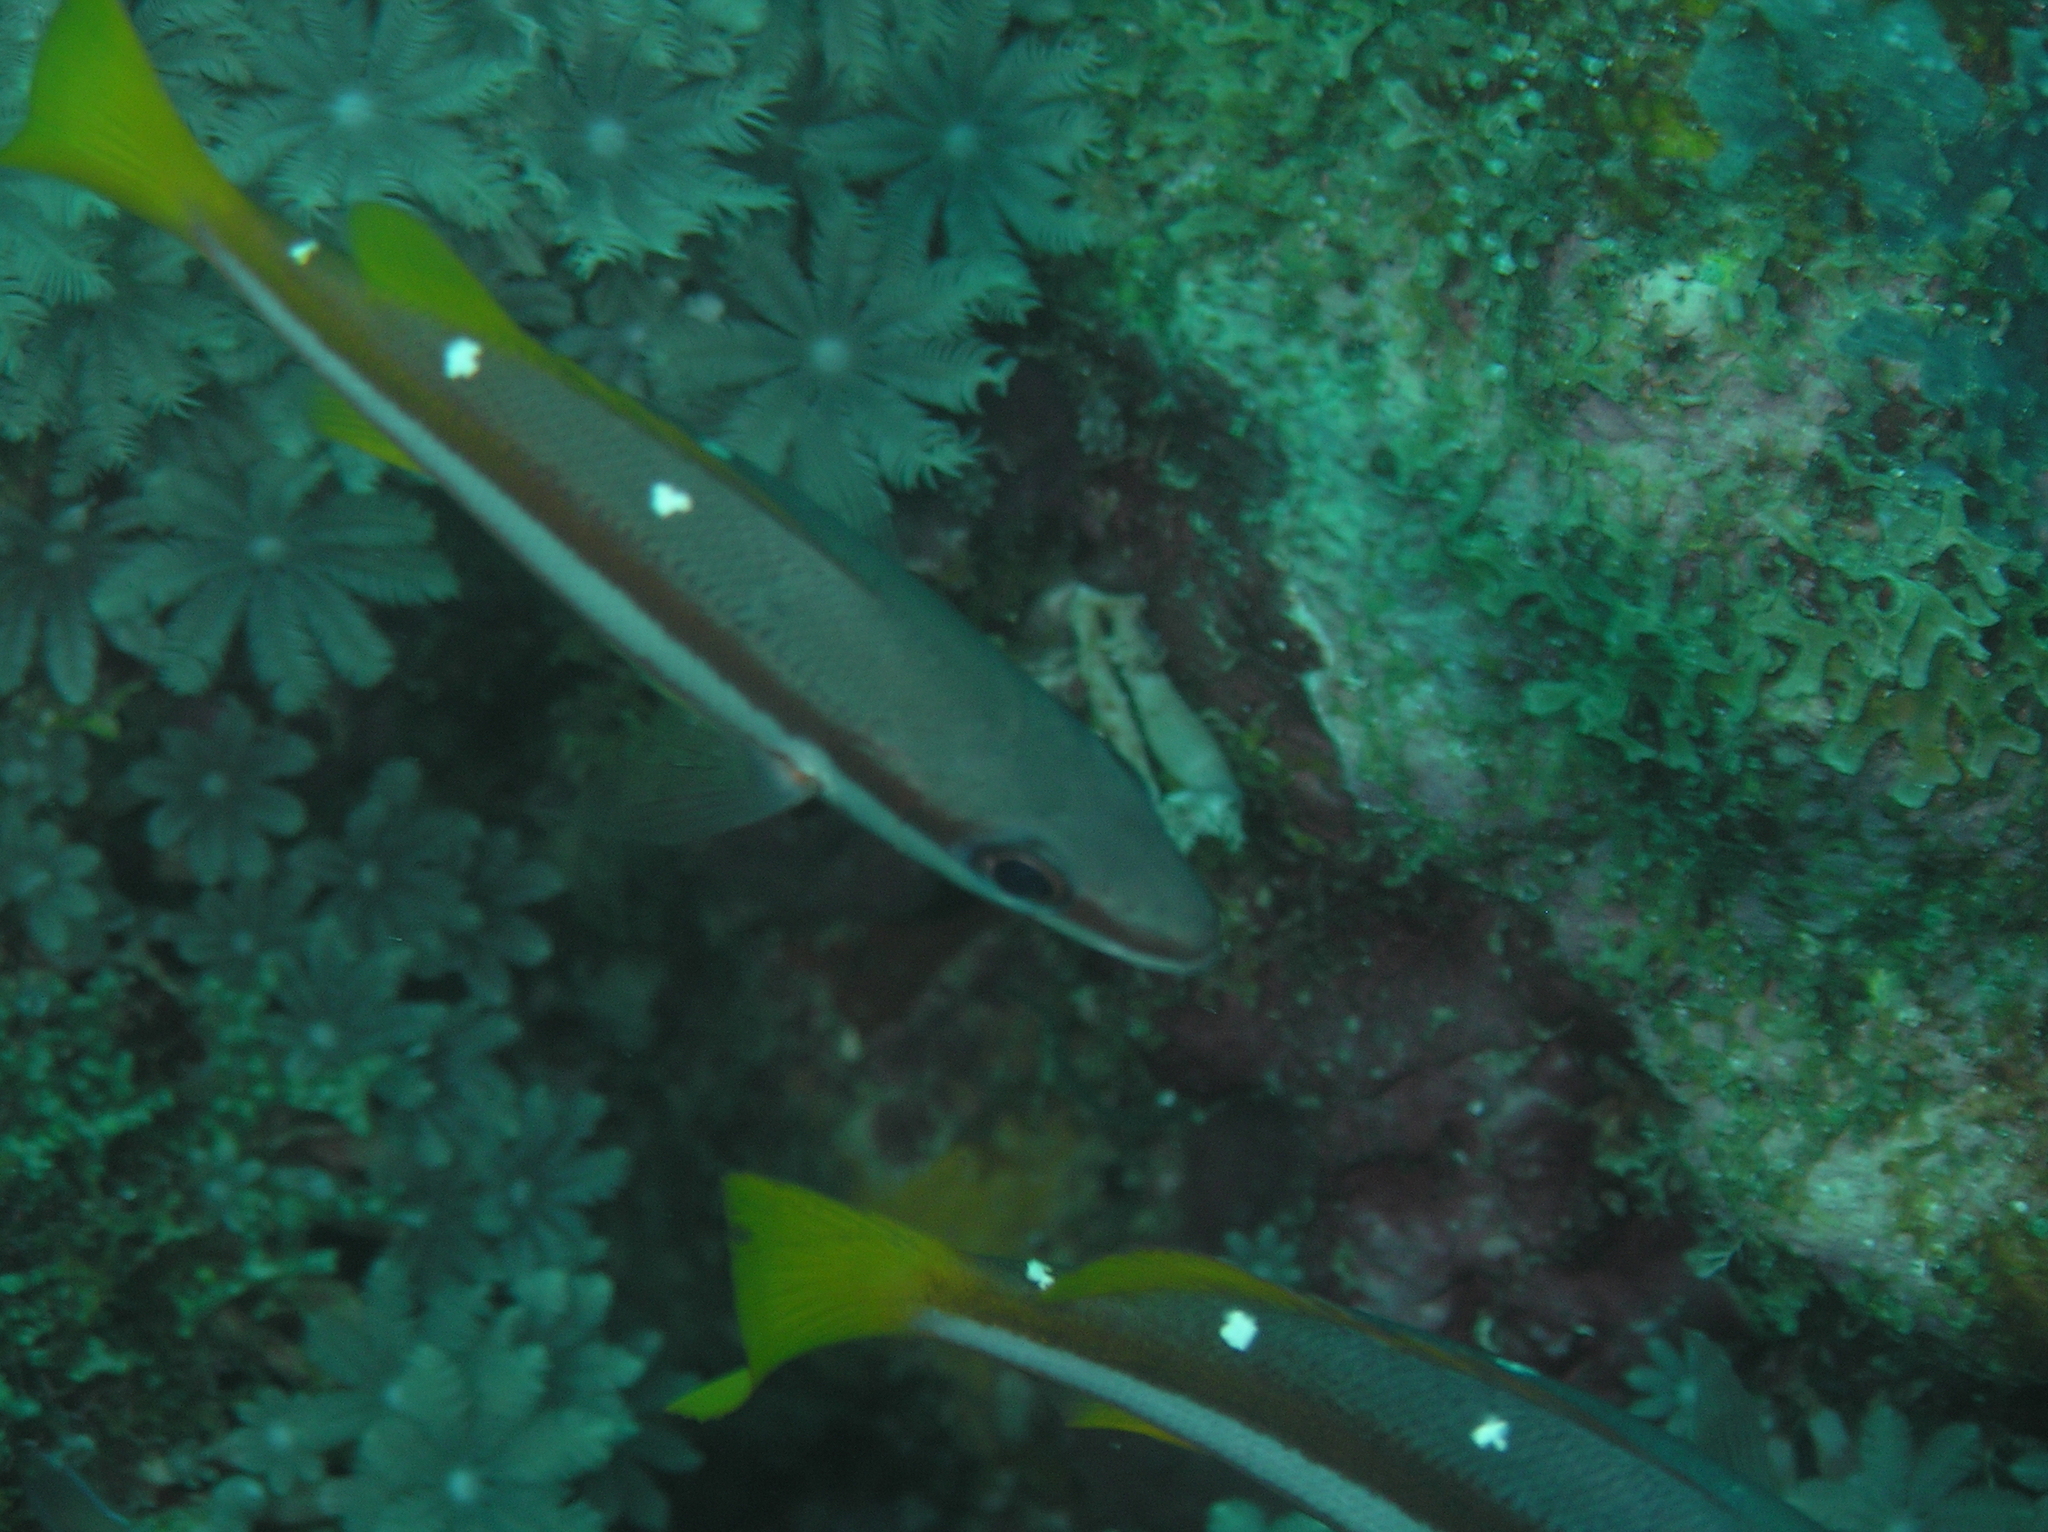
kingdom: Animalia
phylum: Chordata
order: Perciformes
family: Lutjanidae
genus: Lutjanus
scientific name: Lutjanus biguttatus
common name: Two-spot snapper
